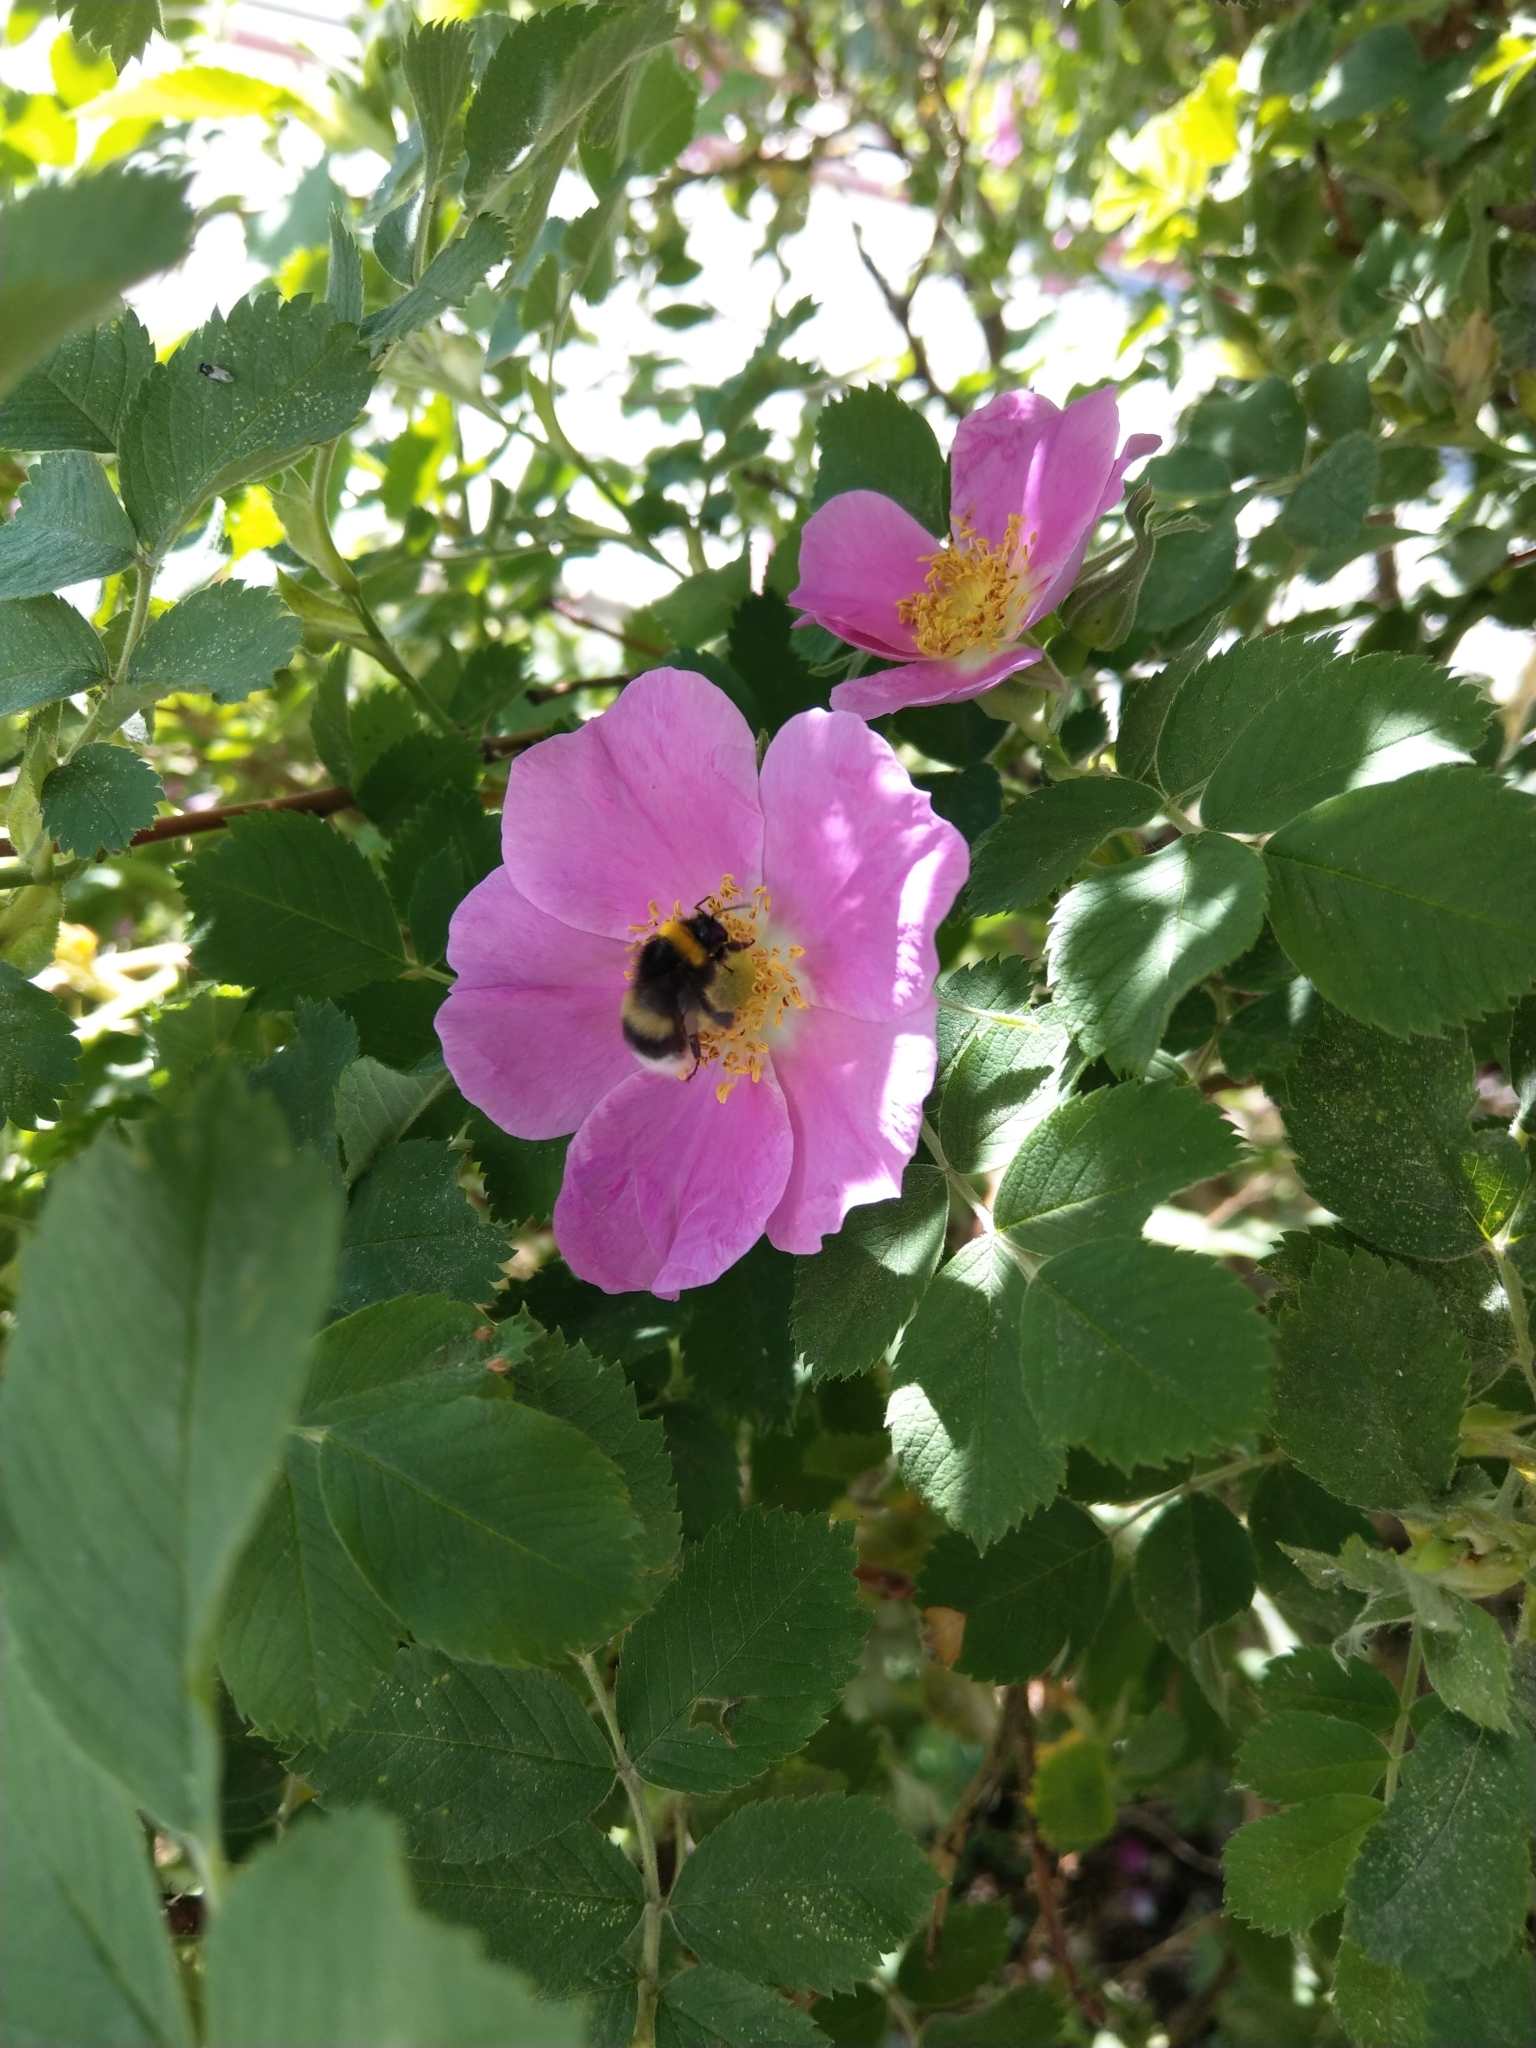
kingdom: Animalia
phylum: Arthropoda
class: Insecta
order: Hymenoptera
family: Apidae
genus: Bombus
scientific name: Bombus lucorum
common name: White-tailed bumblebee
